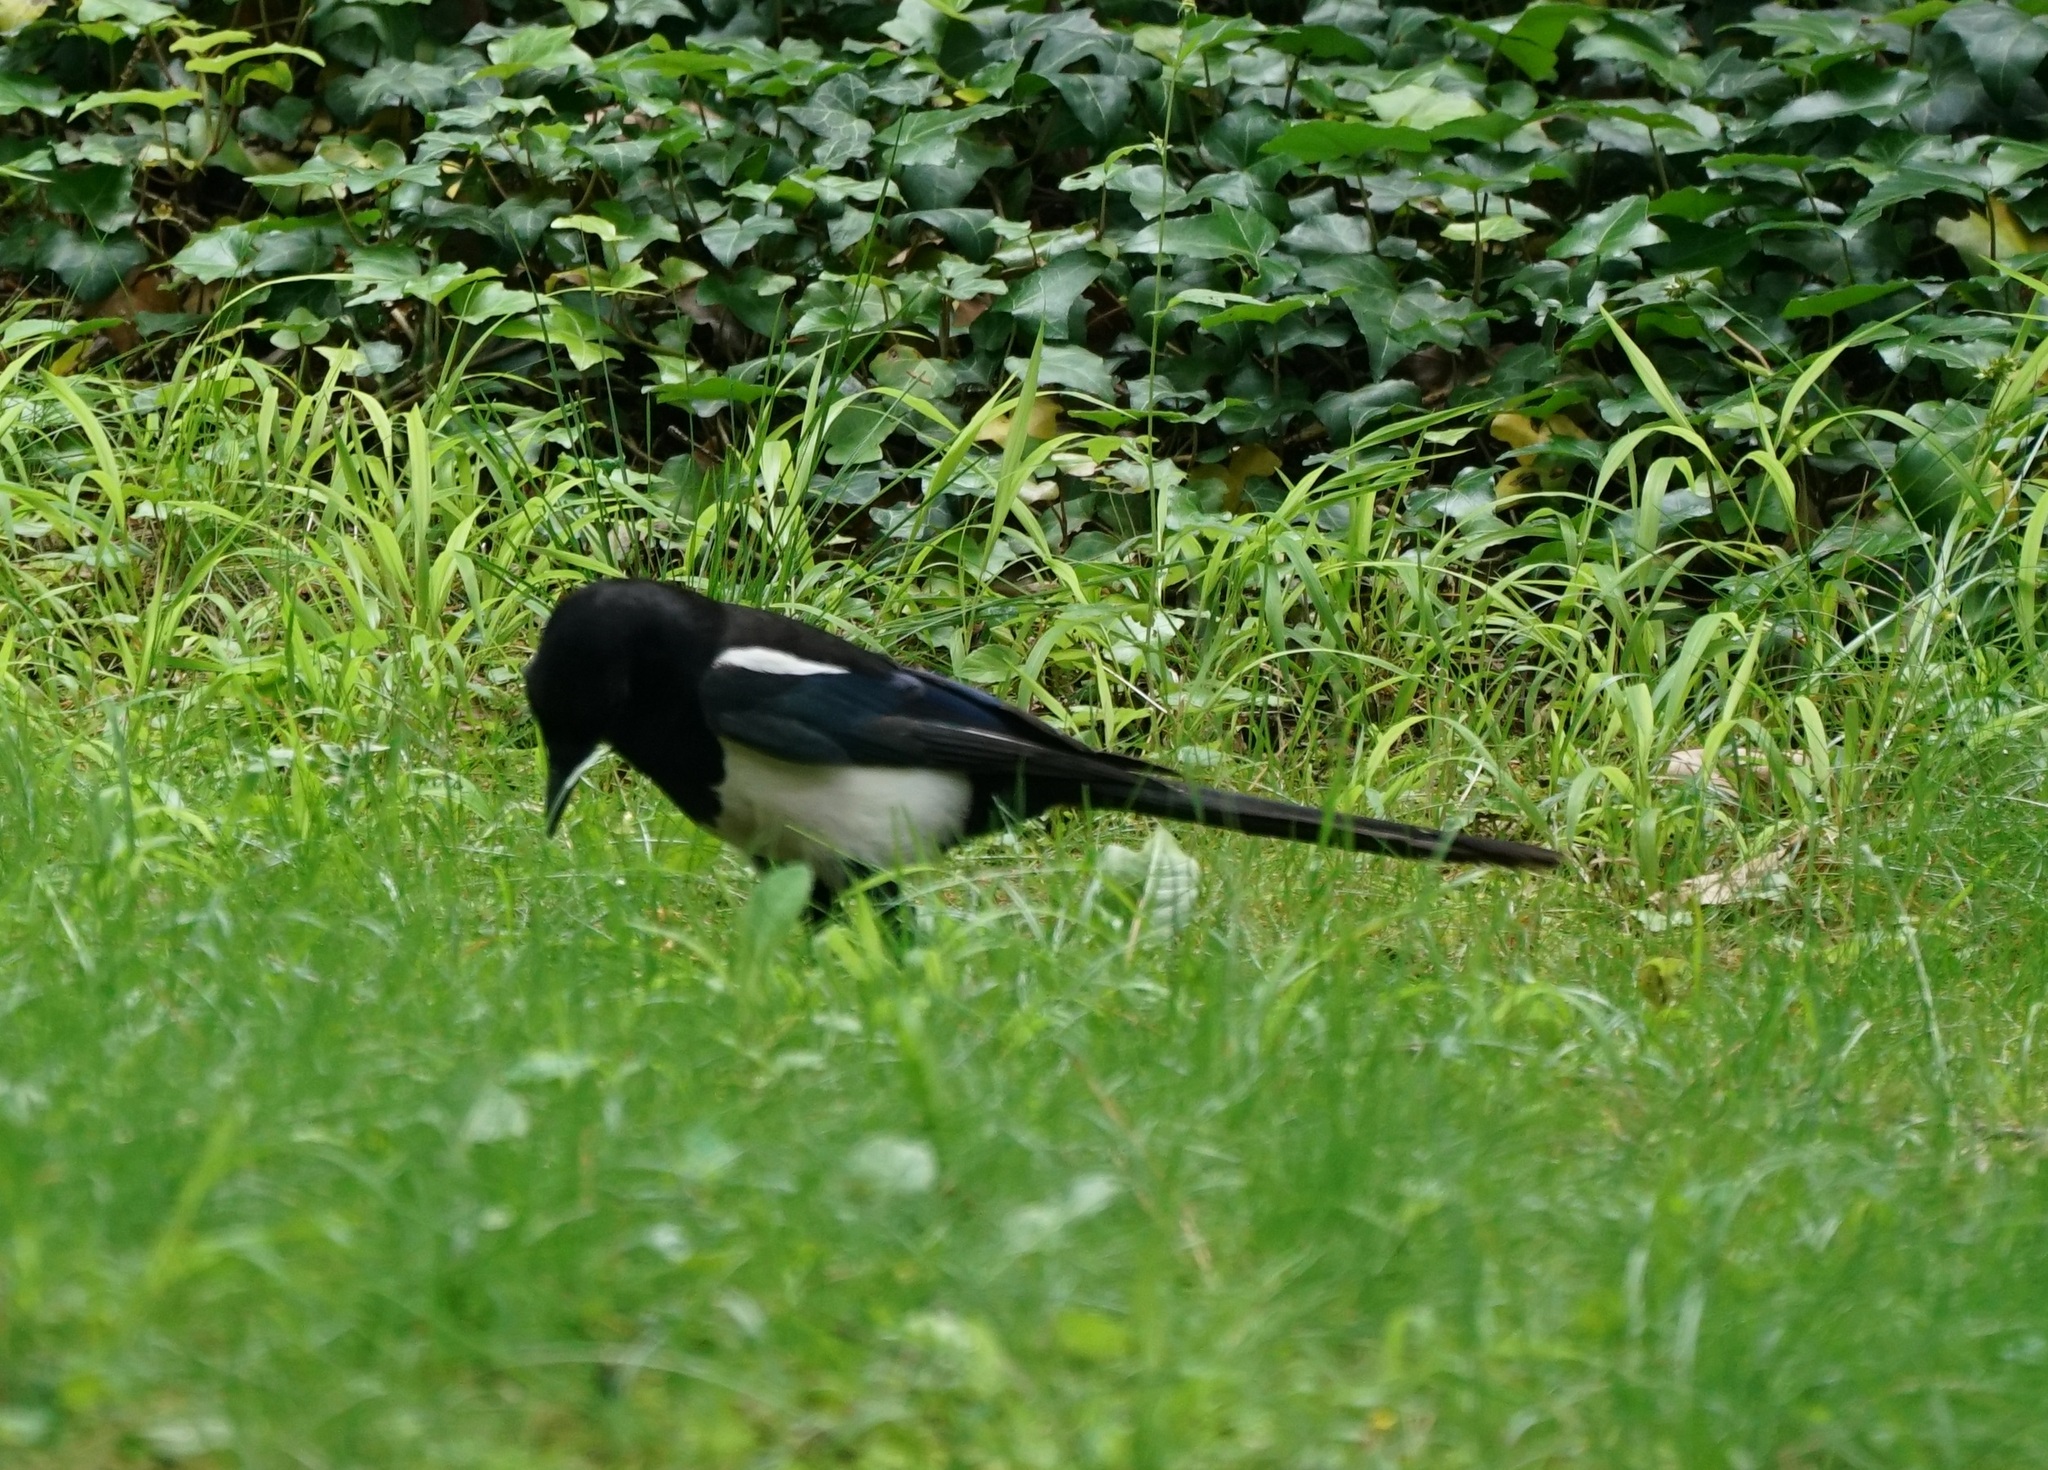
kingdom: Animalia
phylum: Chordata
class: Aves
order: Passeriformes
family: Corvidae
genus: Pica
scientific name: Pica pica
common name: Eurasian magpie
